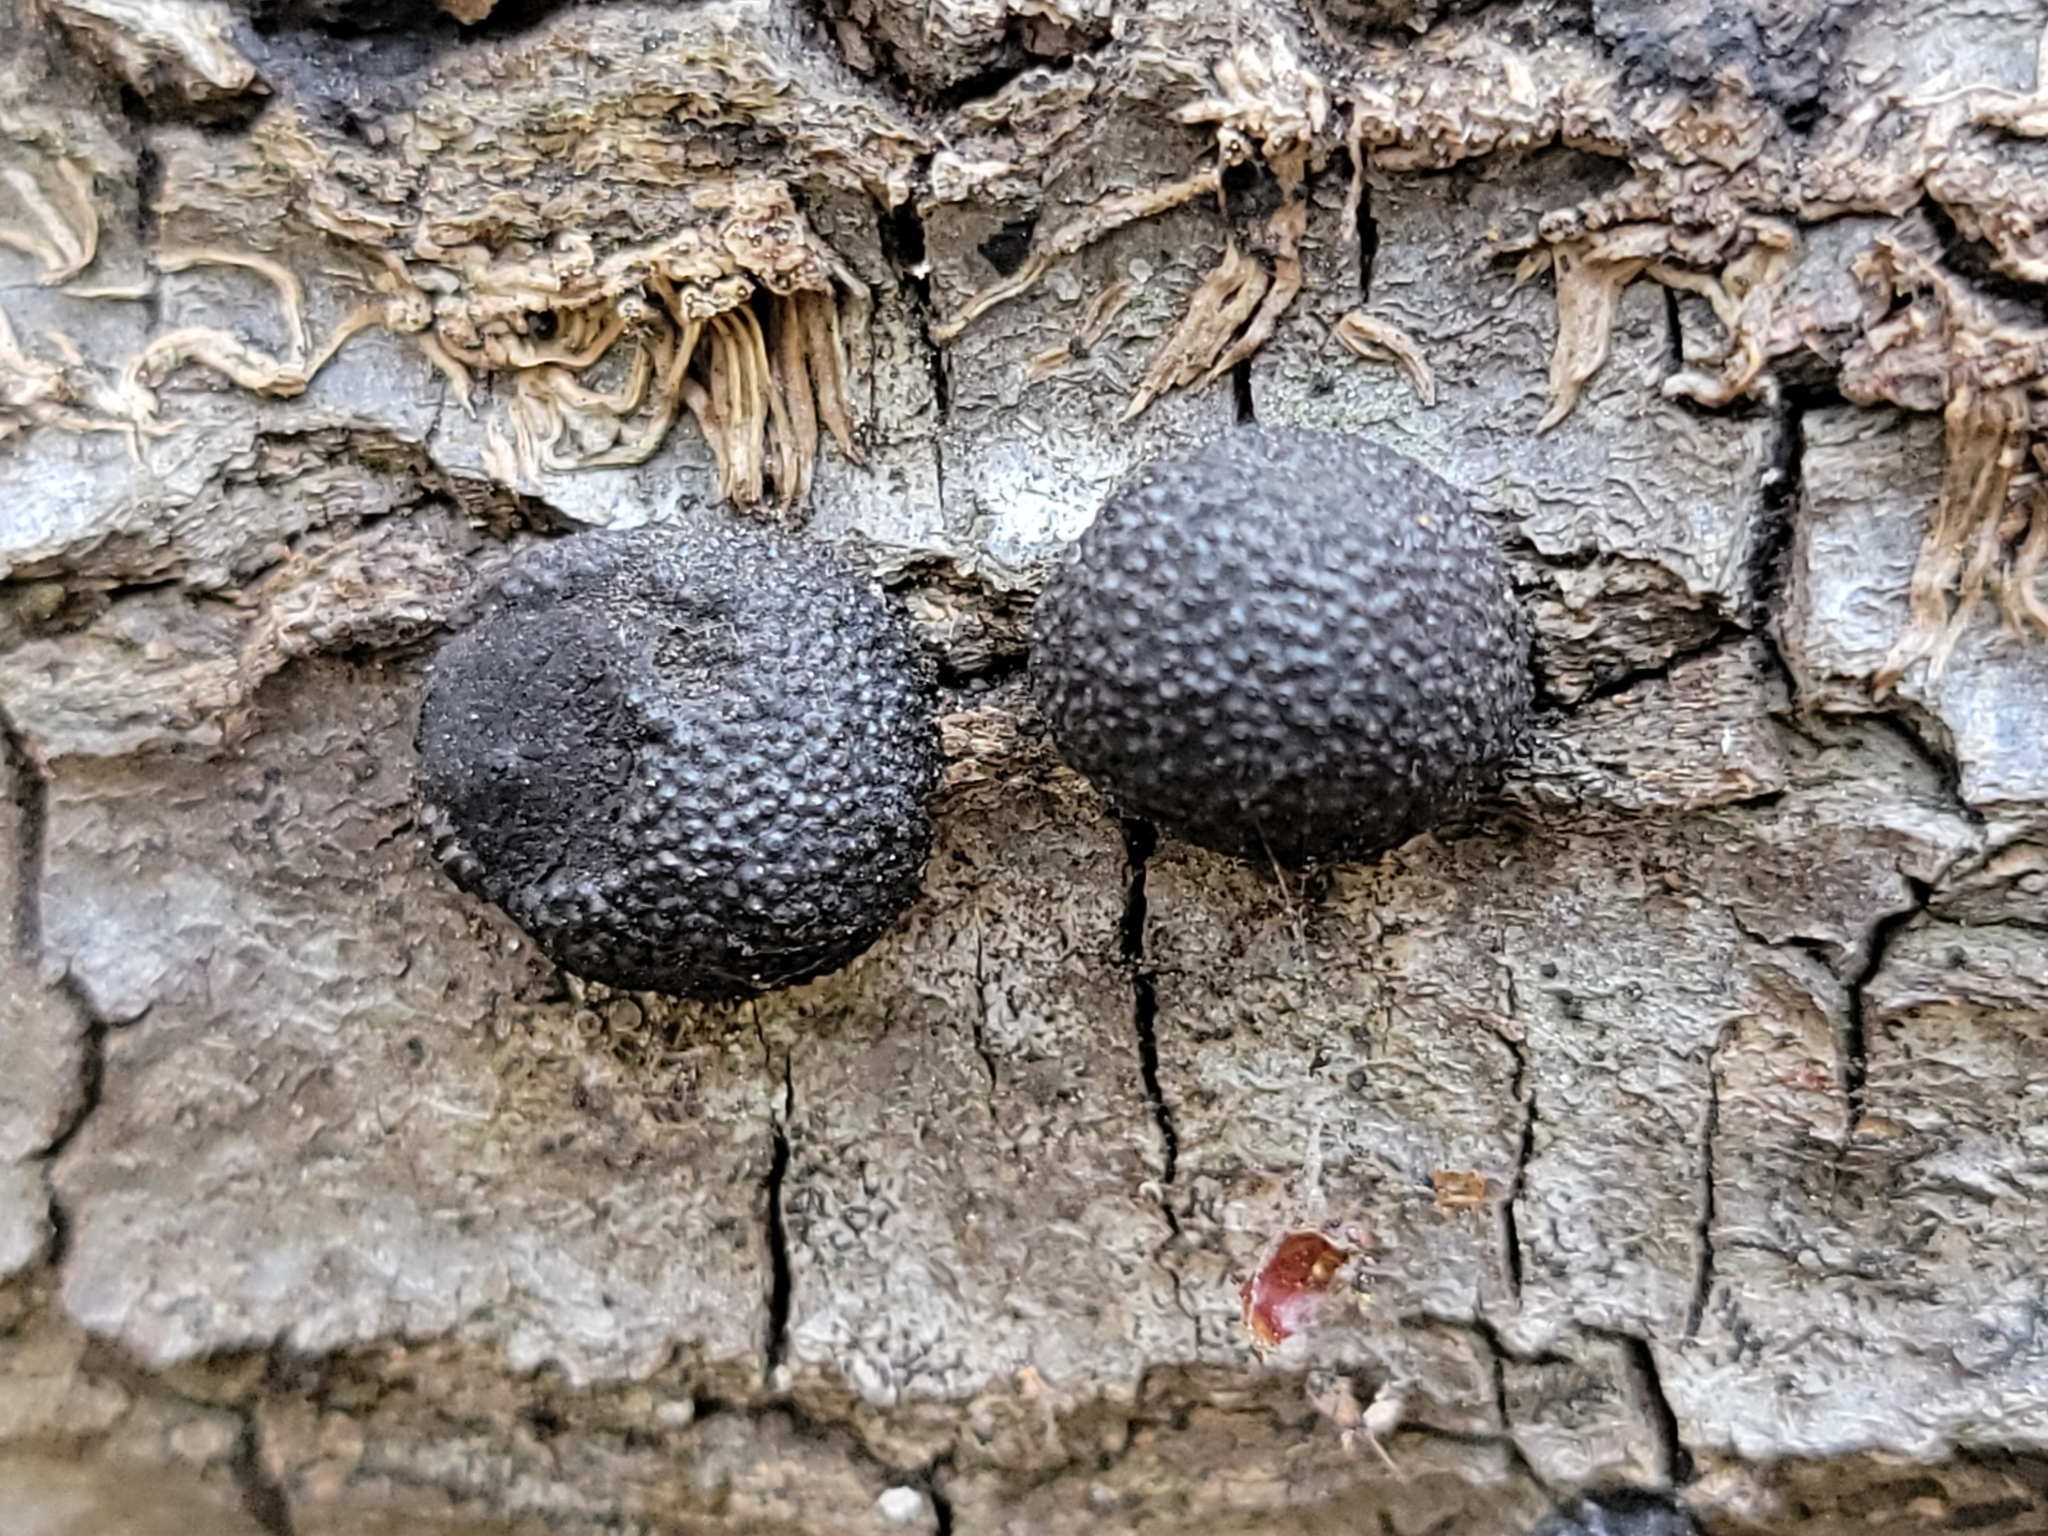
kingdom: Fungi
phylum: Ascomycota
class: Sordariomycetes
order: Xylariales
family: Hypoxylaceae
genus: Annulohypoxylon
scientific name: Annulohypoxylon thouarsianum
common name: Cramp balls
